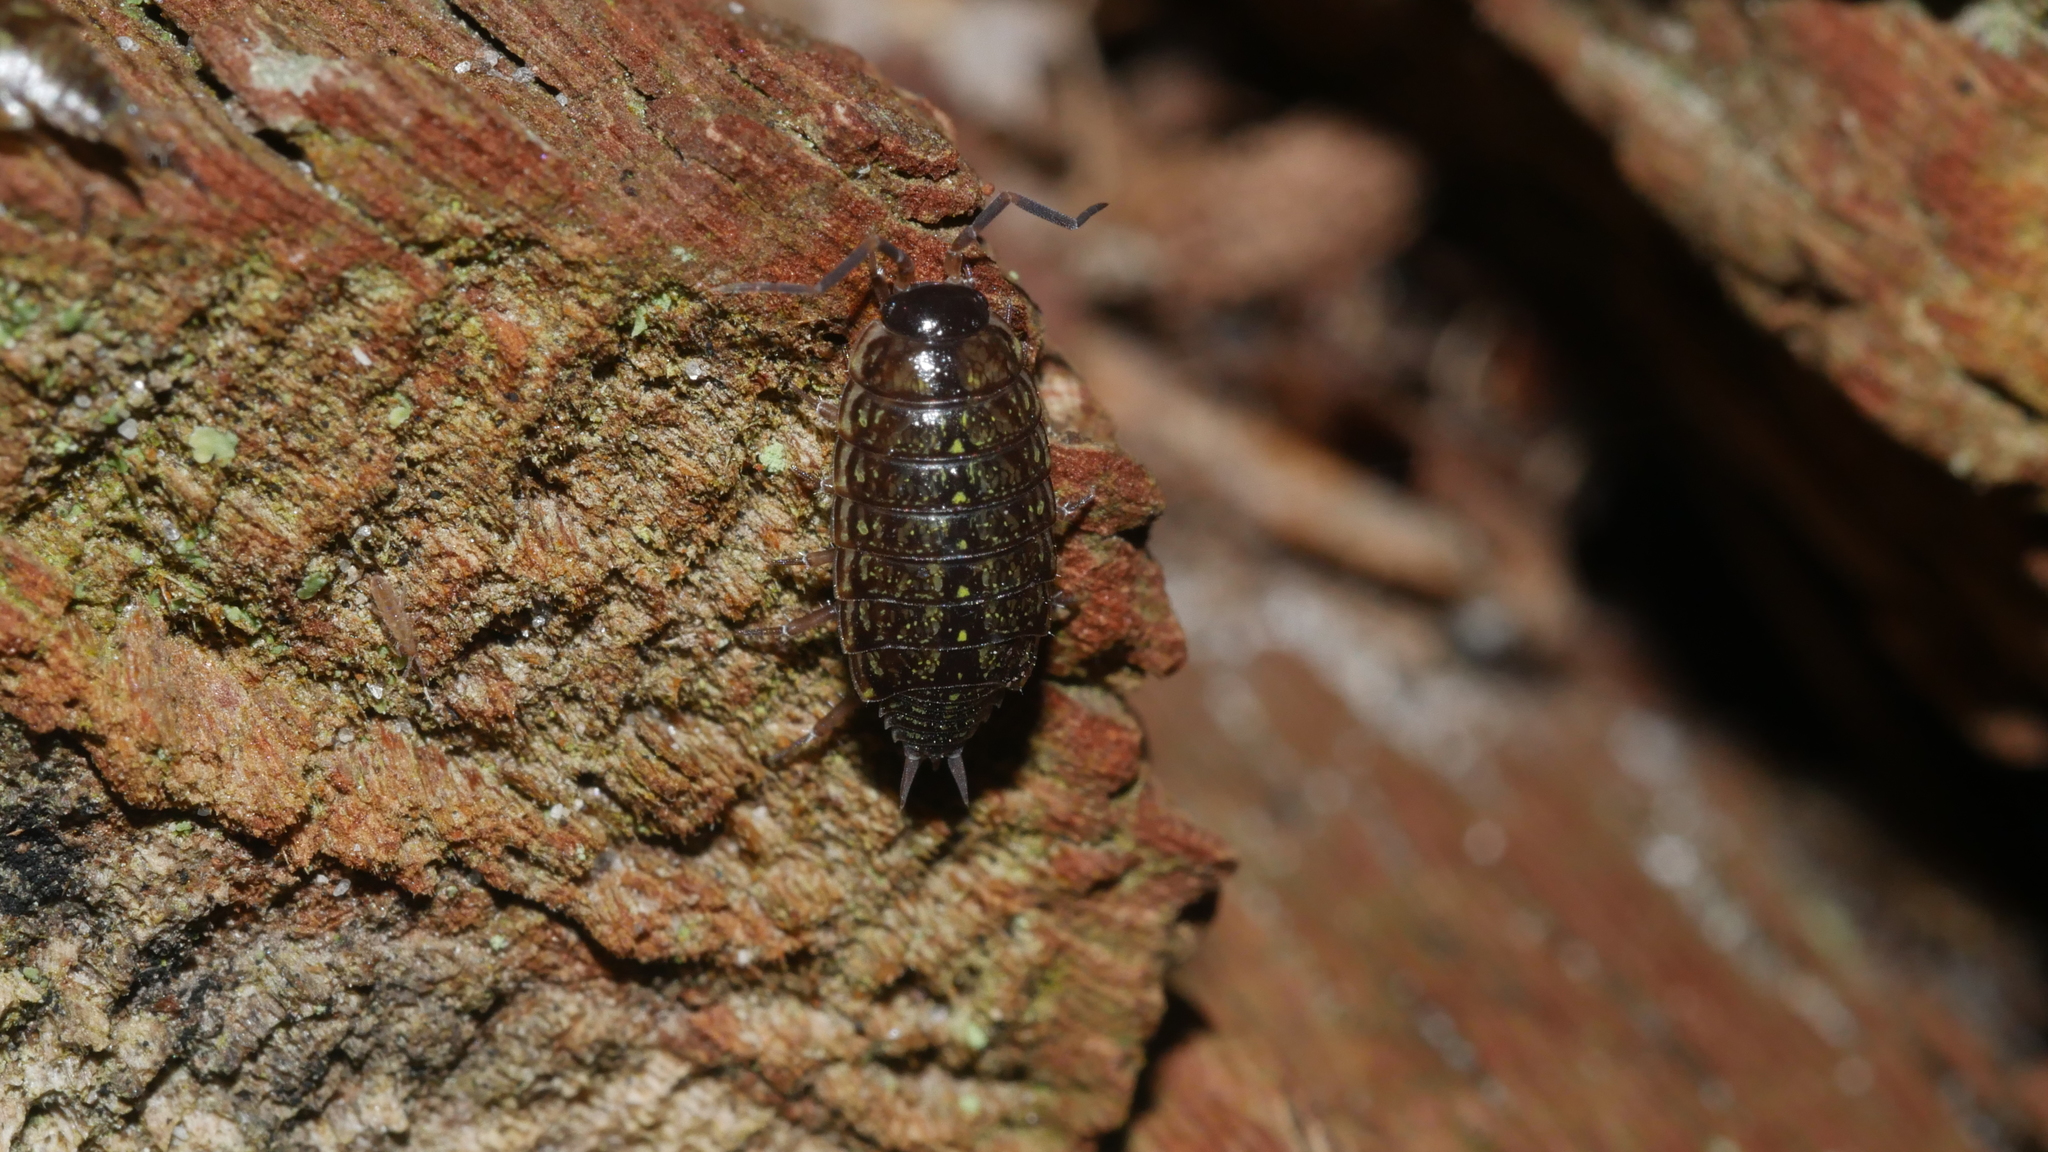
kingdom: Animalia
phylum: Arthropoda
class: Malacostraca
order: Isopoda
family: Philosciidae
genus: Philoscia
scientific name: Philoscia muscorum
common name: Common striped woodlouse
